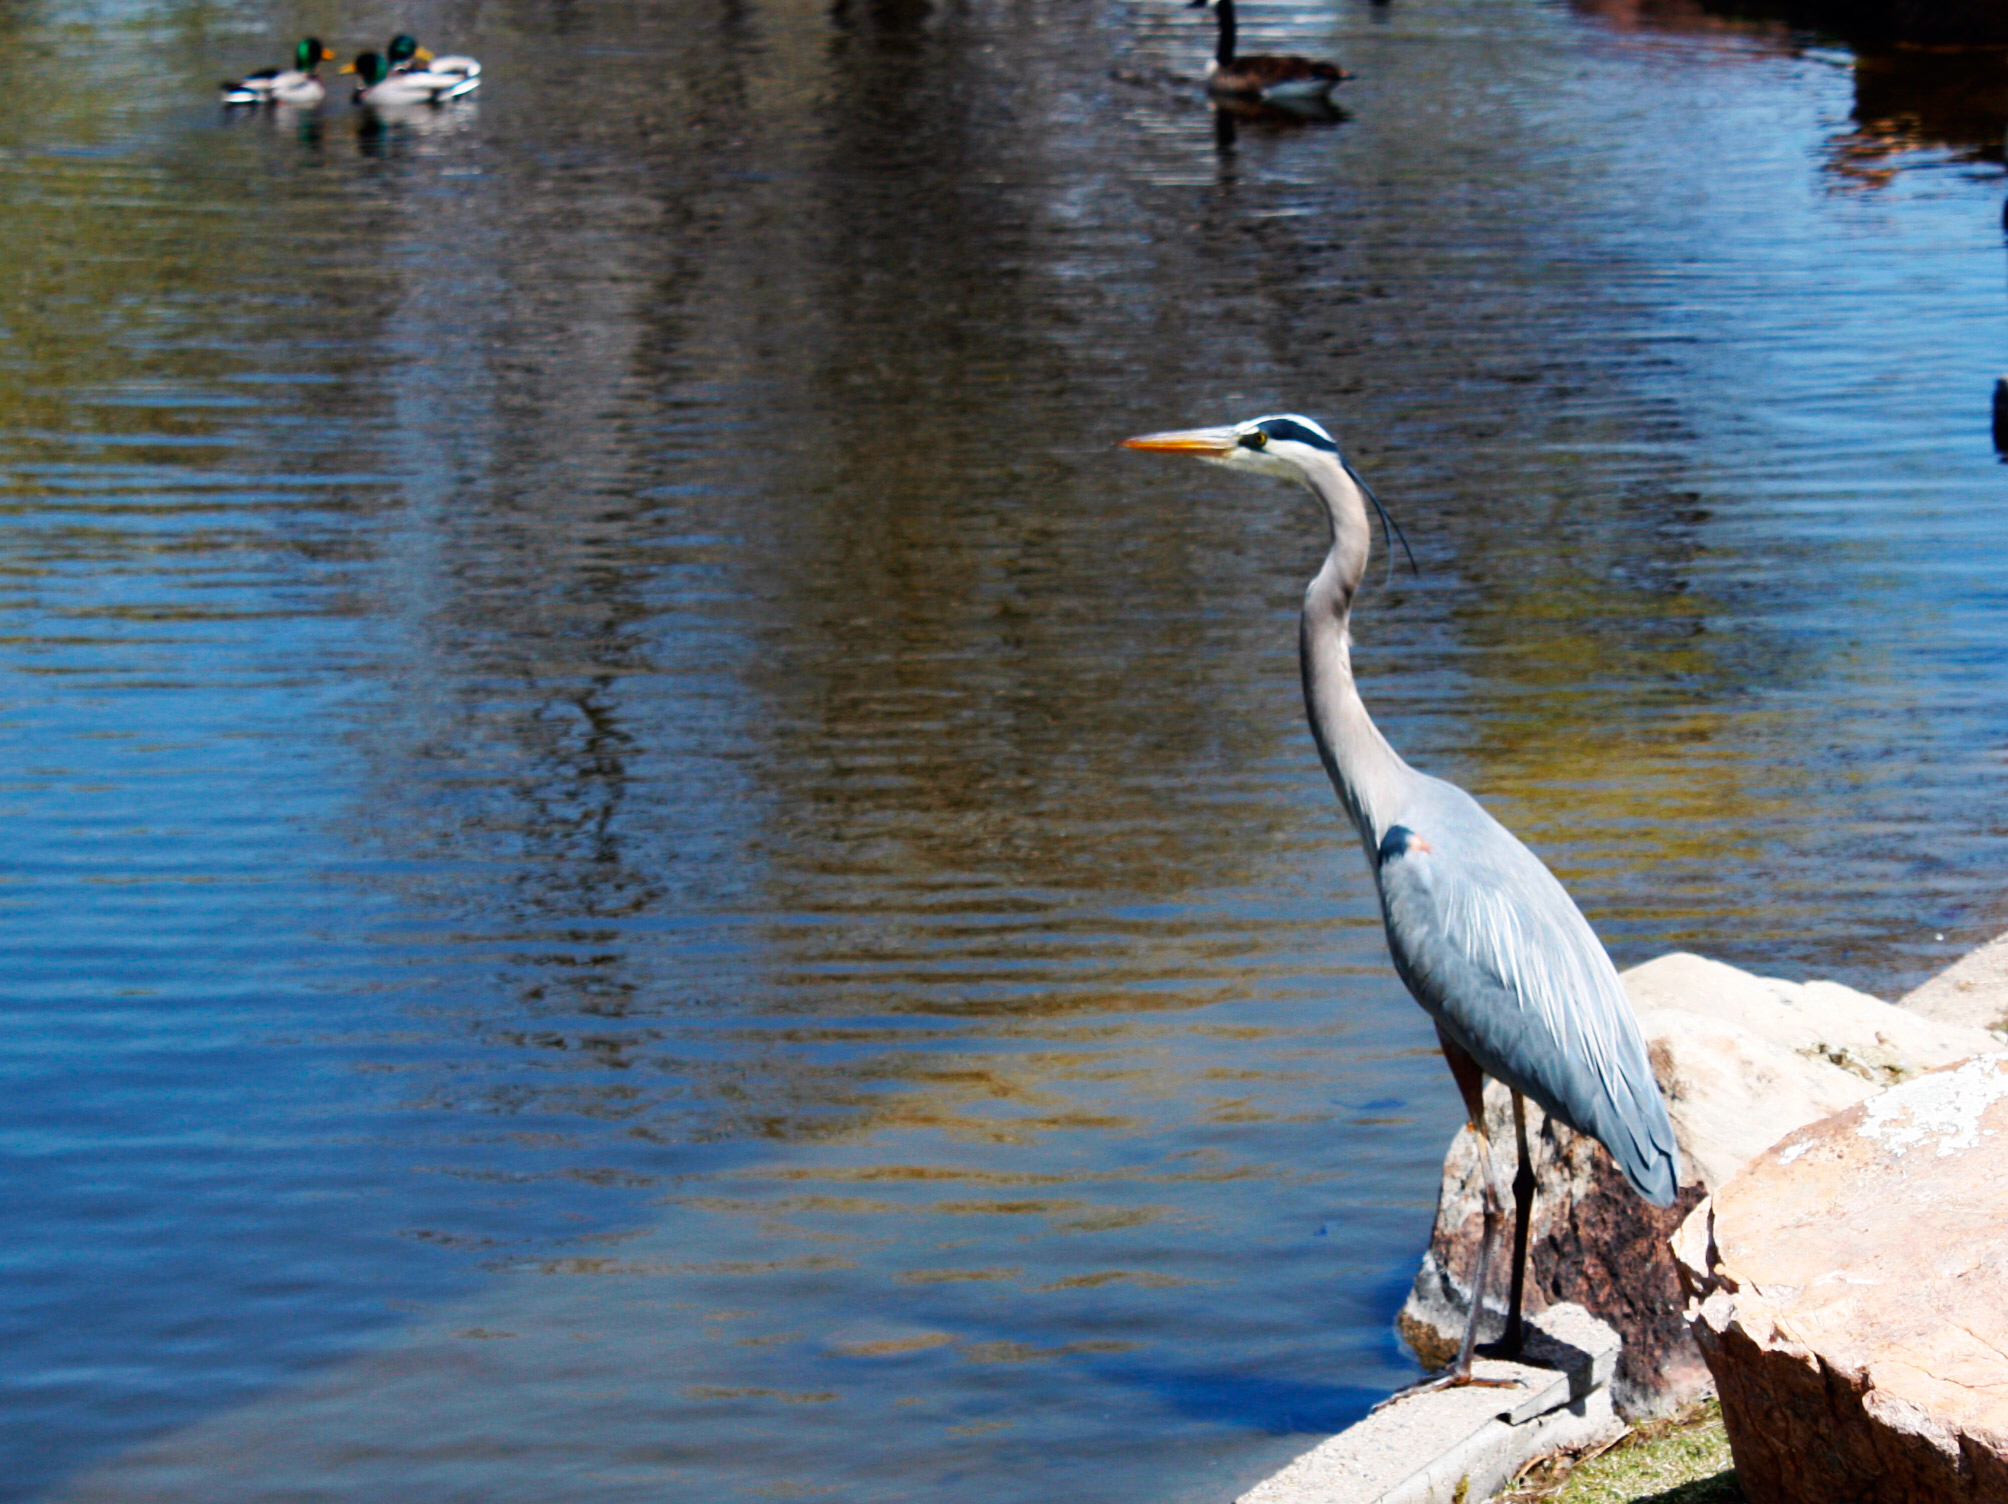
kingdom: Animalia
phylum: Chordata
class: Aves
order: Pelecaniformes
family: Ardeidae
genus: Ardea
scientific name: Ardea herodias
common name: Great blue heron
